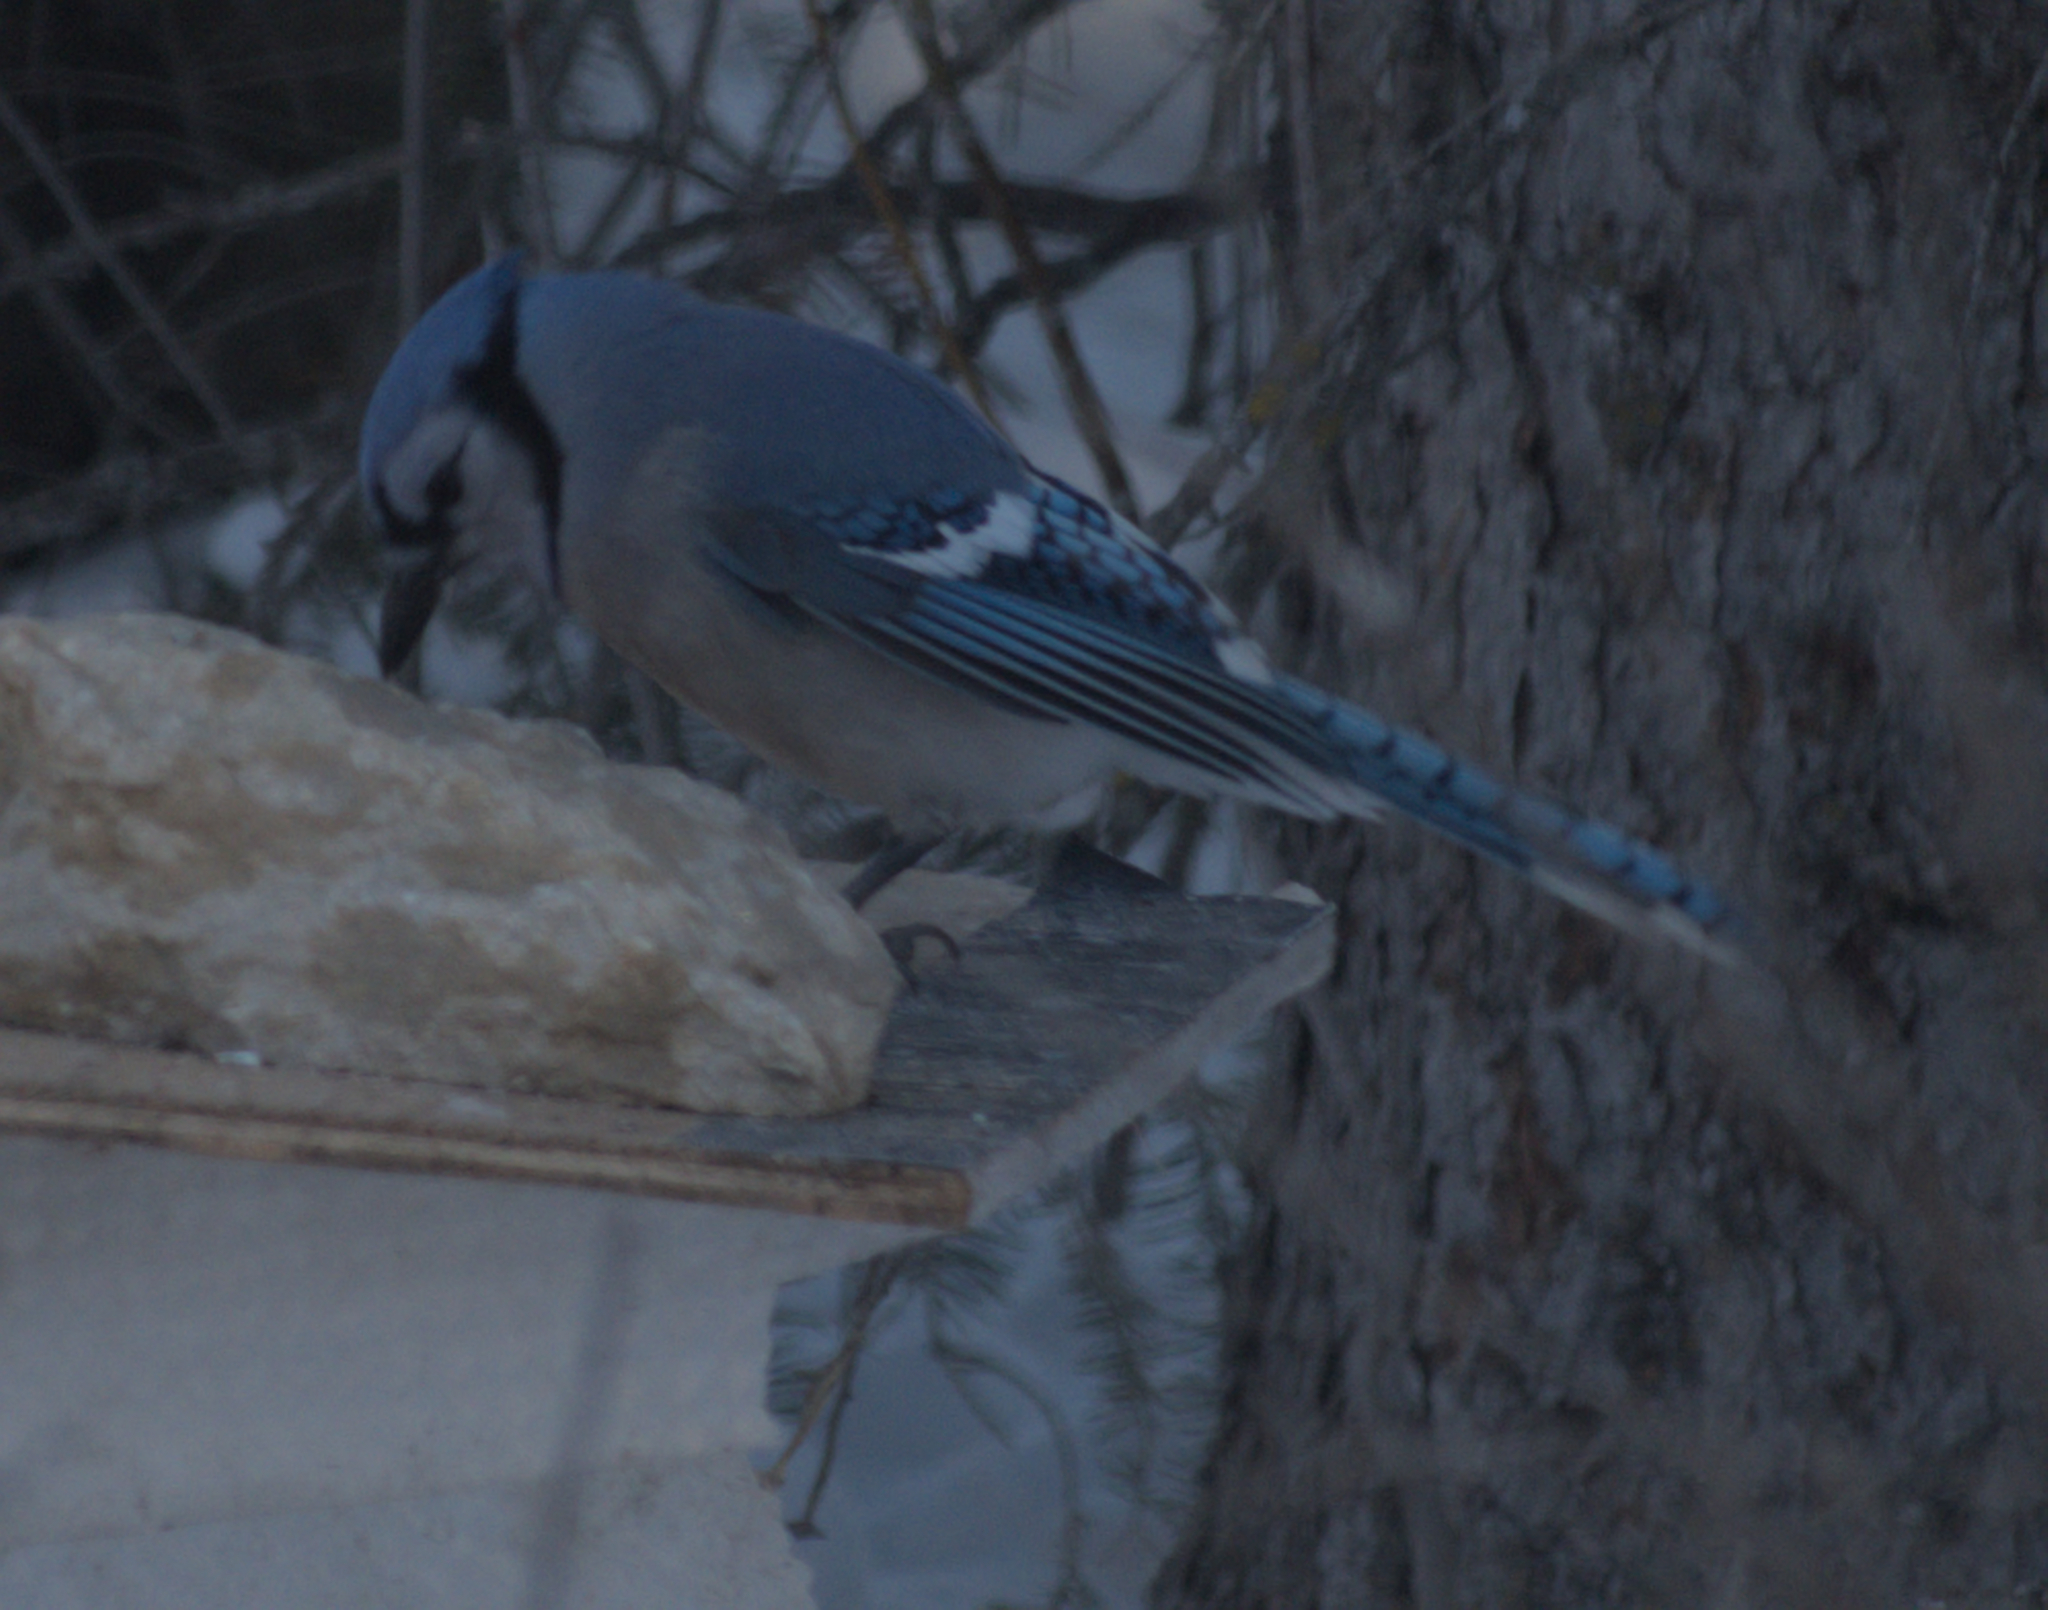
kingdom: Animalia
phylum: Chordata
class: Aves
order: Passeriformes
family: Corvidae
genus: Cyanocitta
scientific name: Cyanocitta cristata
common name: Blue jay
